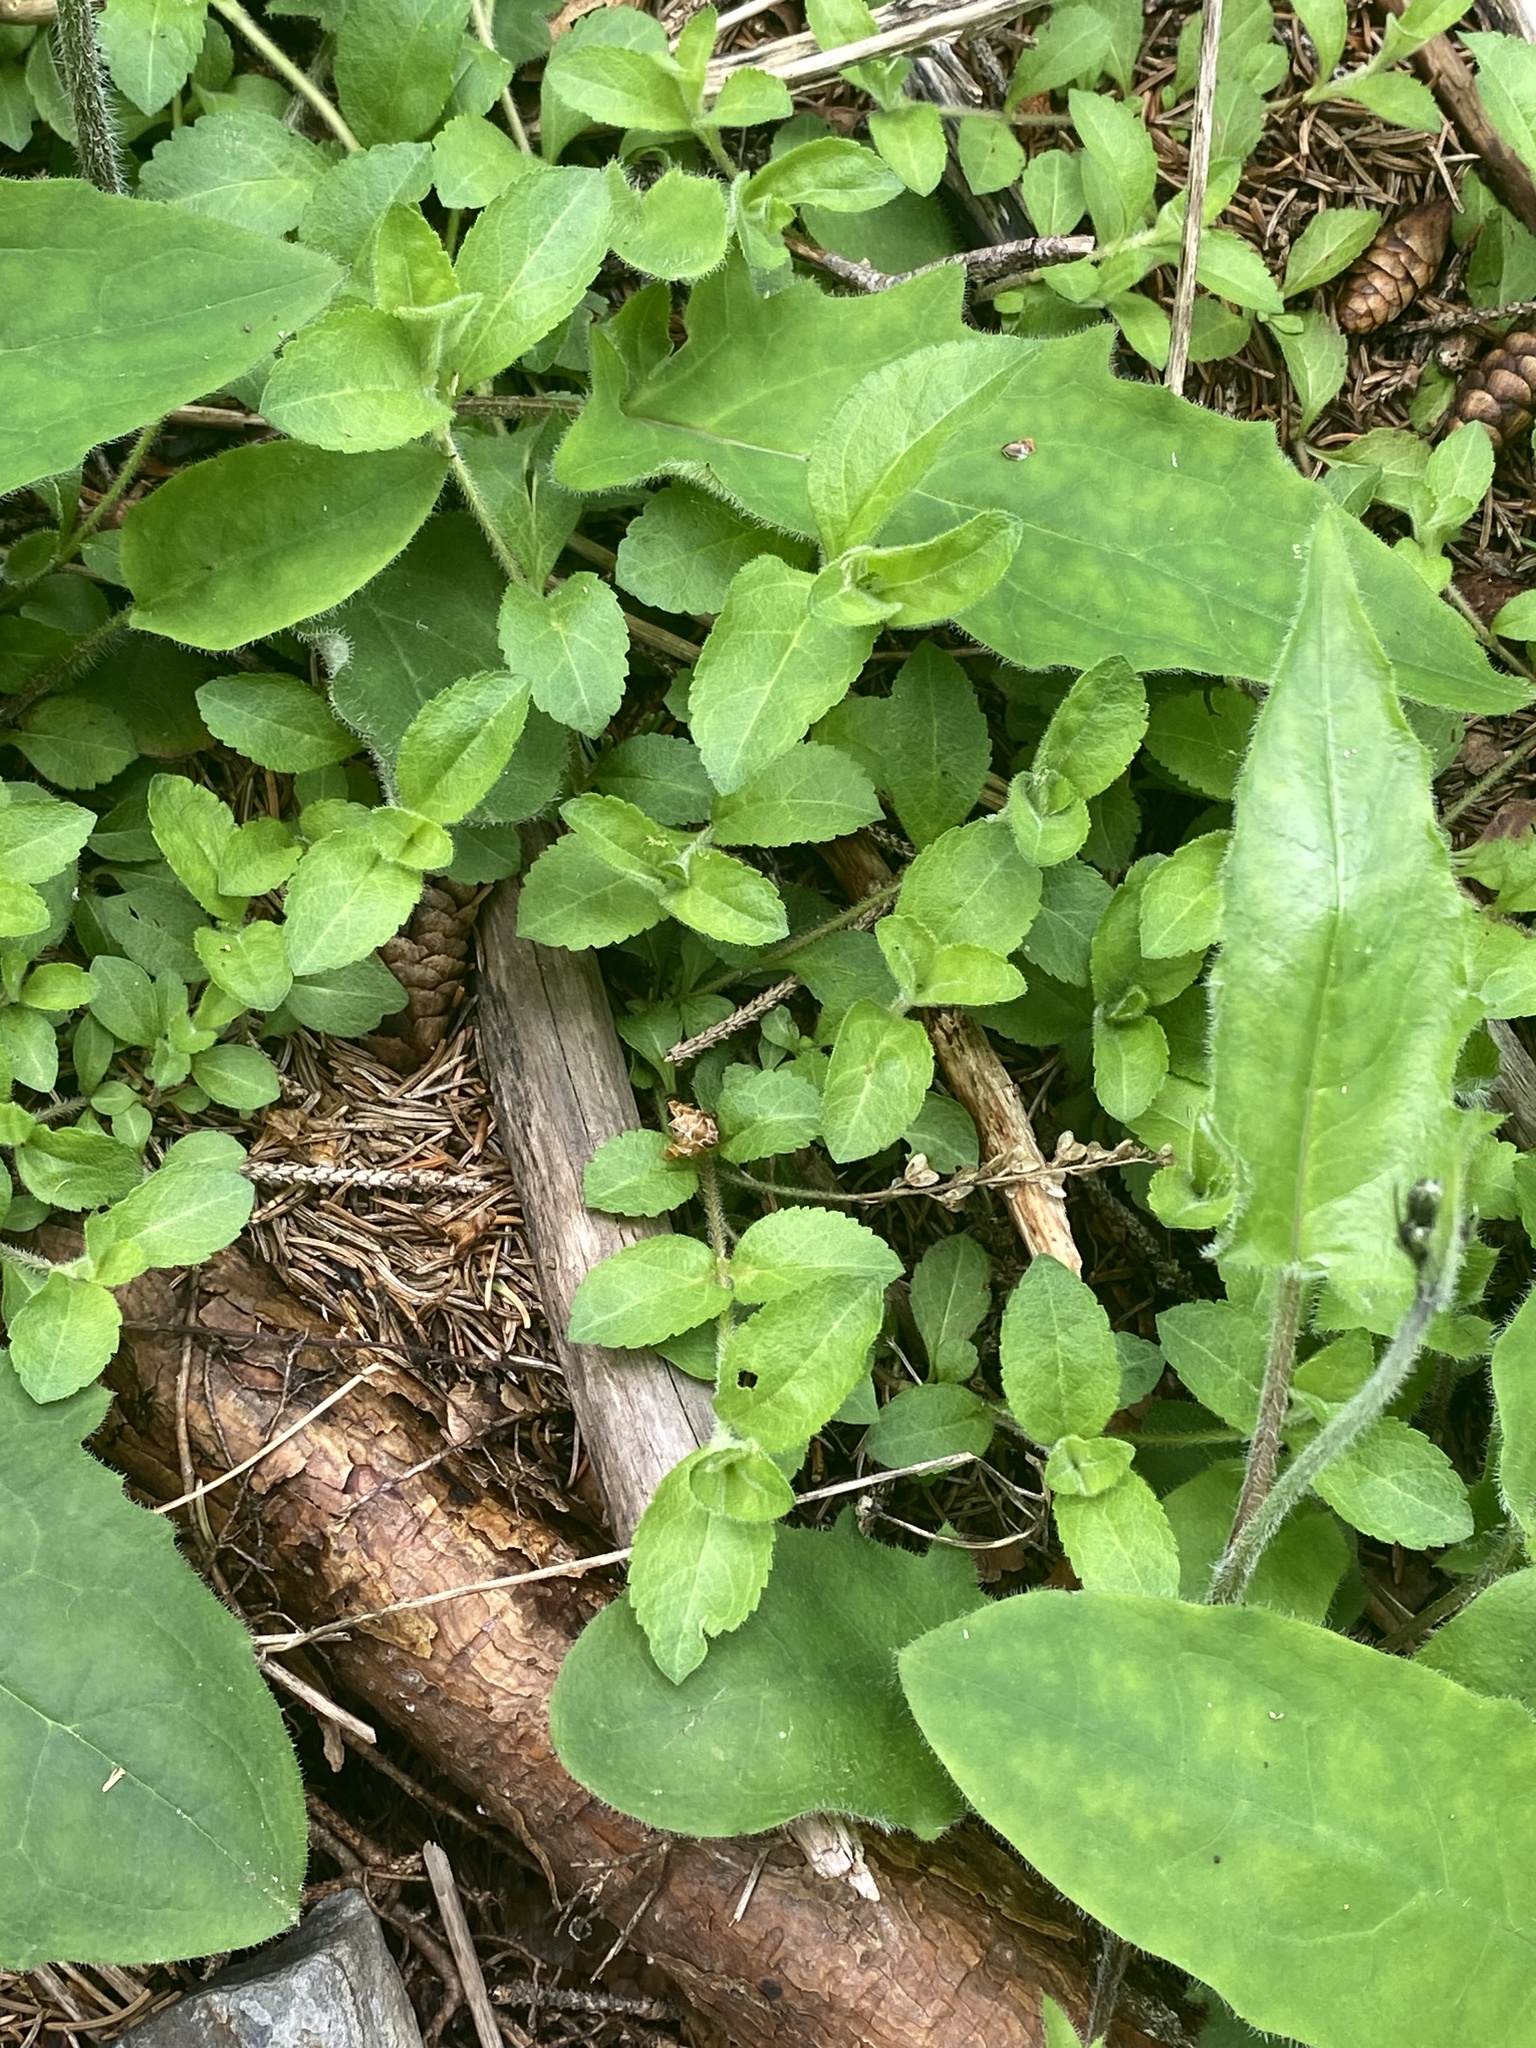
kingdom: Plantae
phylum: Tracheophyta
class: Magnoliopsida
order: Lamiales
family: Plantaginaceae
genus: Veronica
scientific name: Veronica officinalis
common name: Common speedwell
